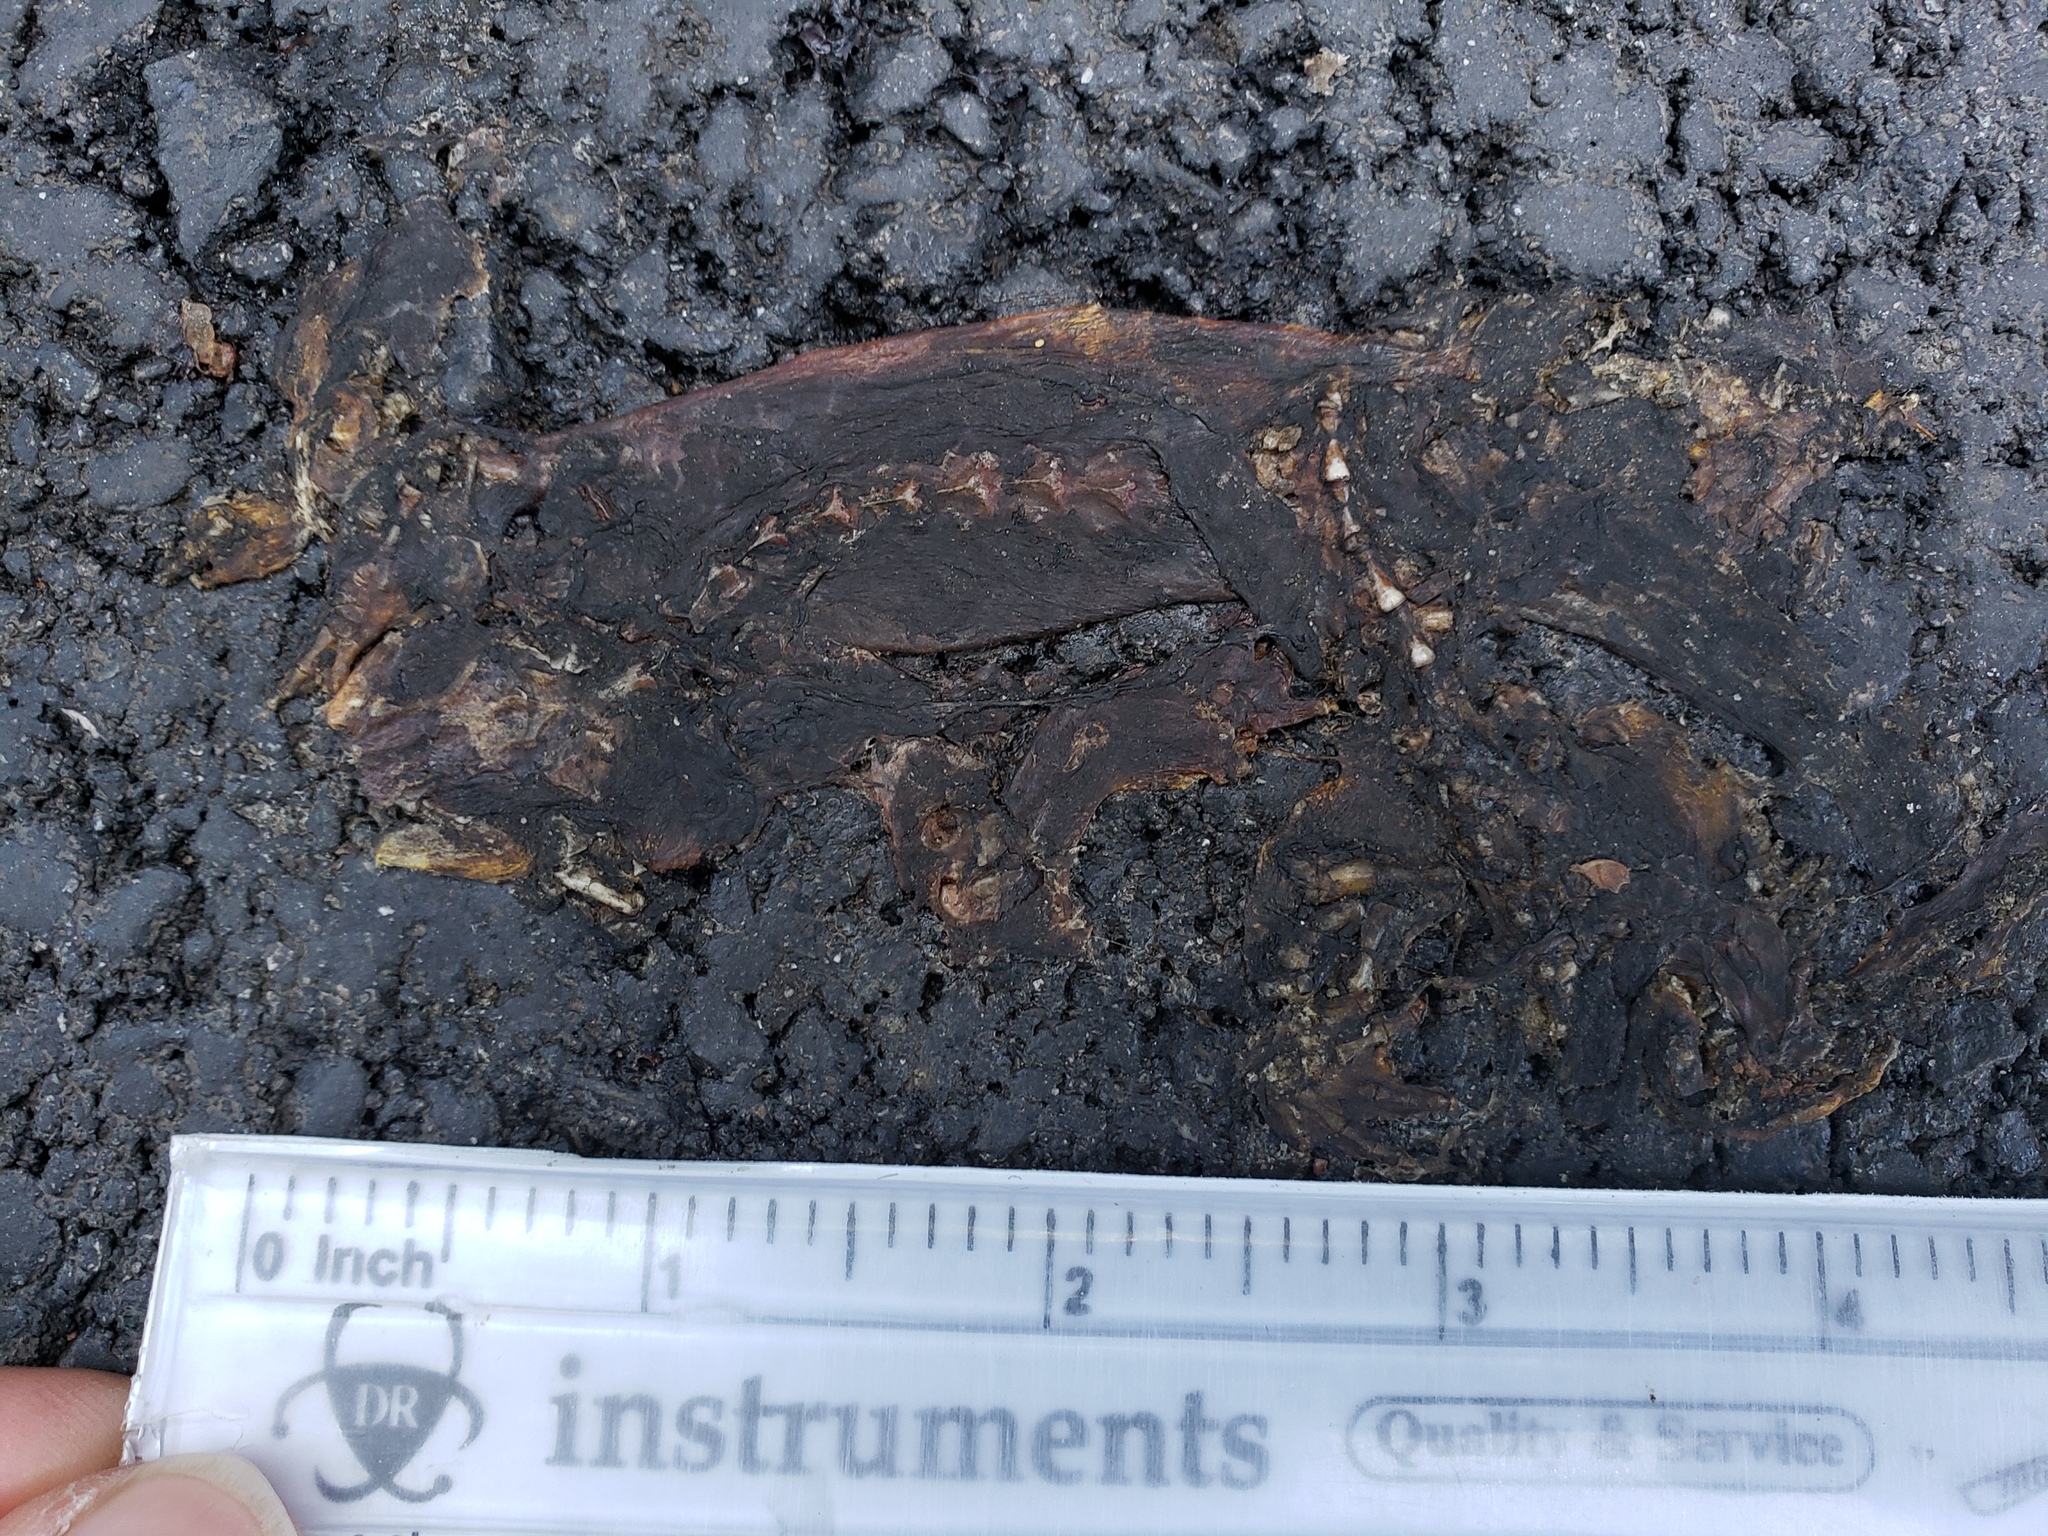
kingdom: Animalia
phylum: Chordata
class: Amphibia
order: Caudata
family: Salamandridae
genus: Taricha
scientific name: Taricha
